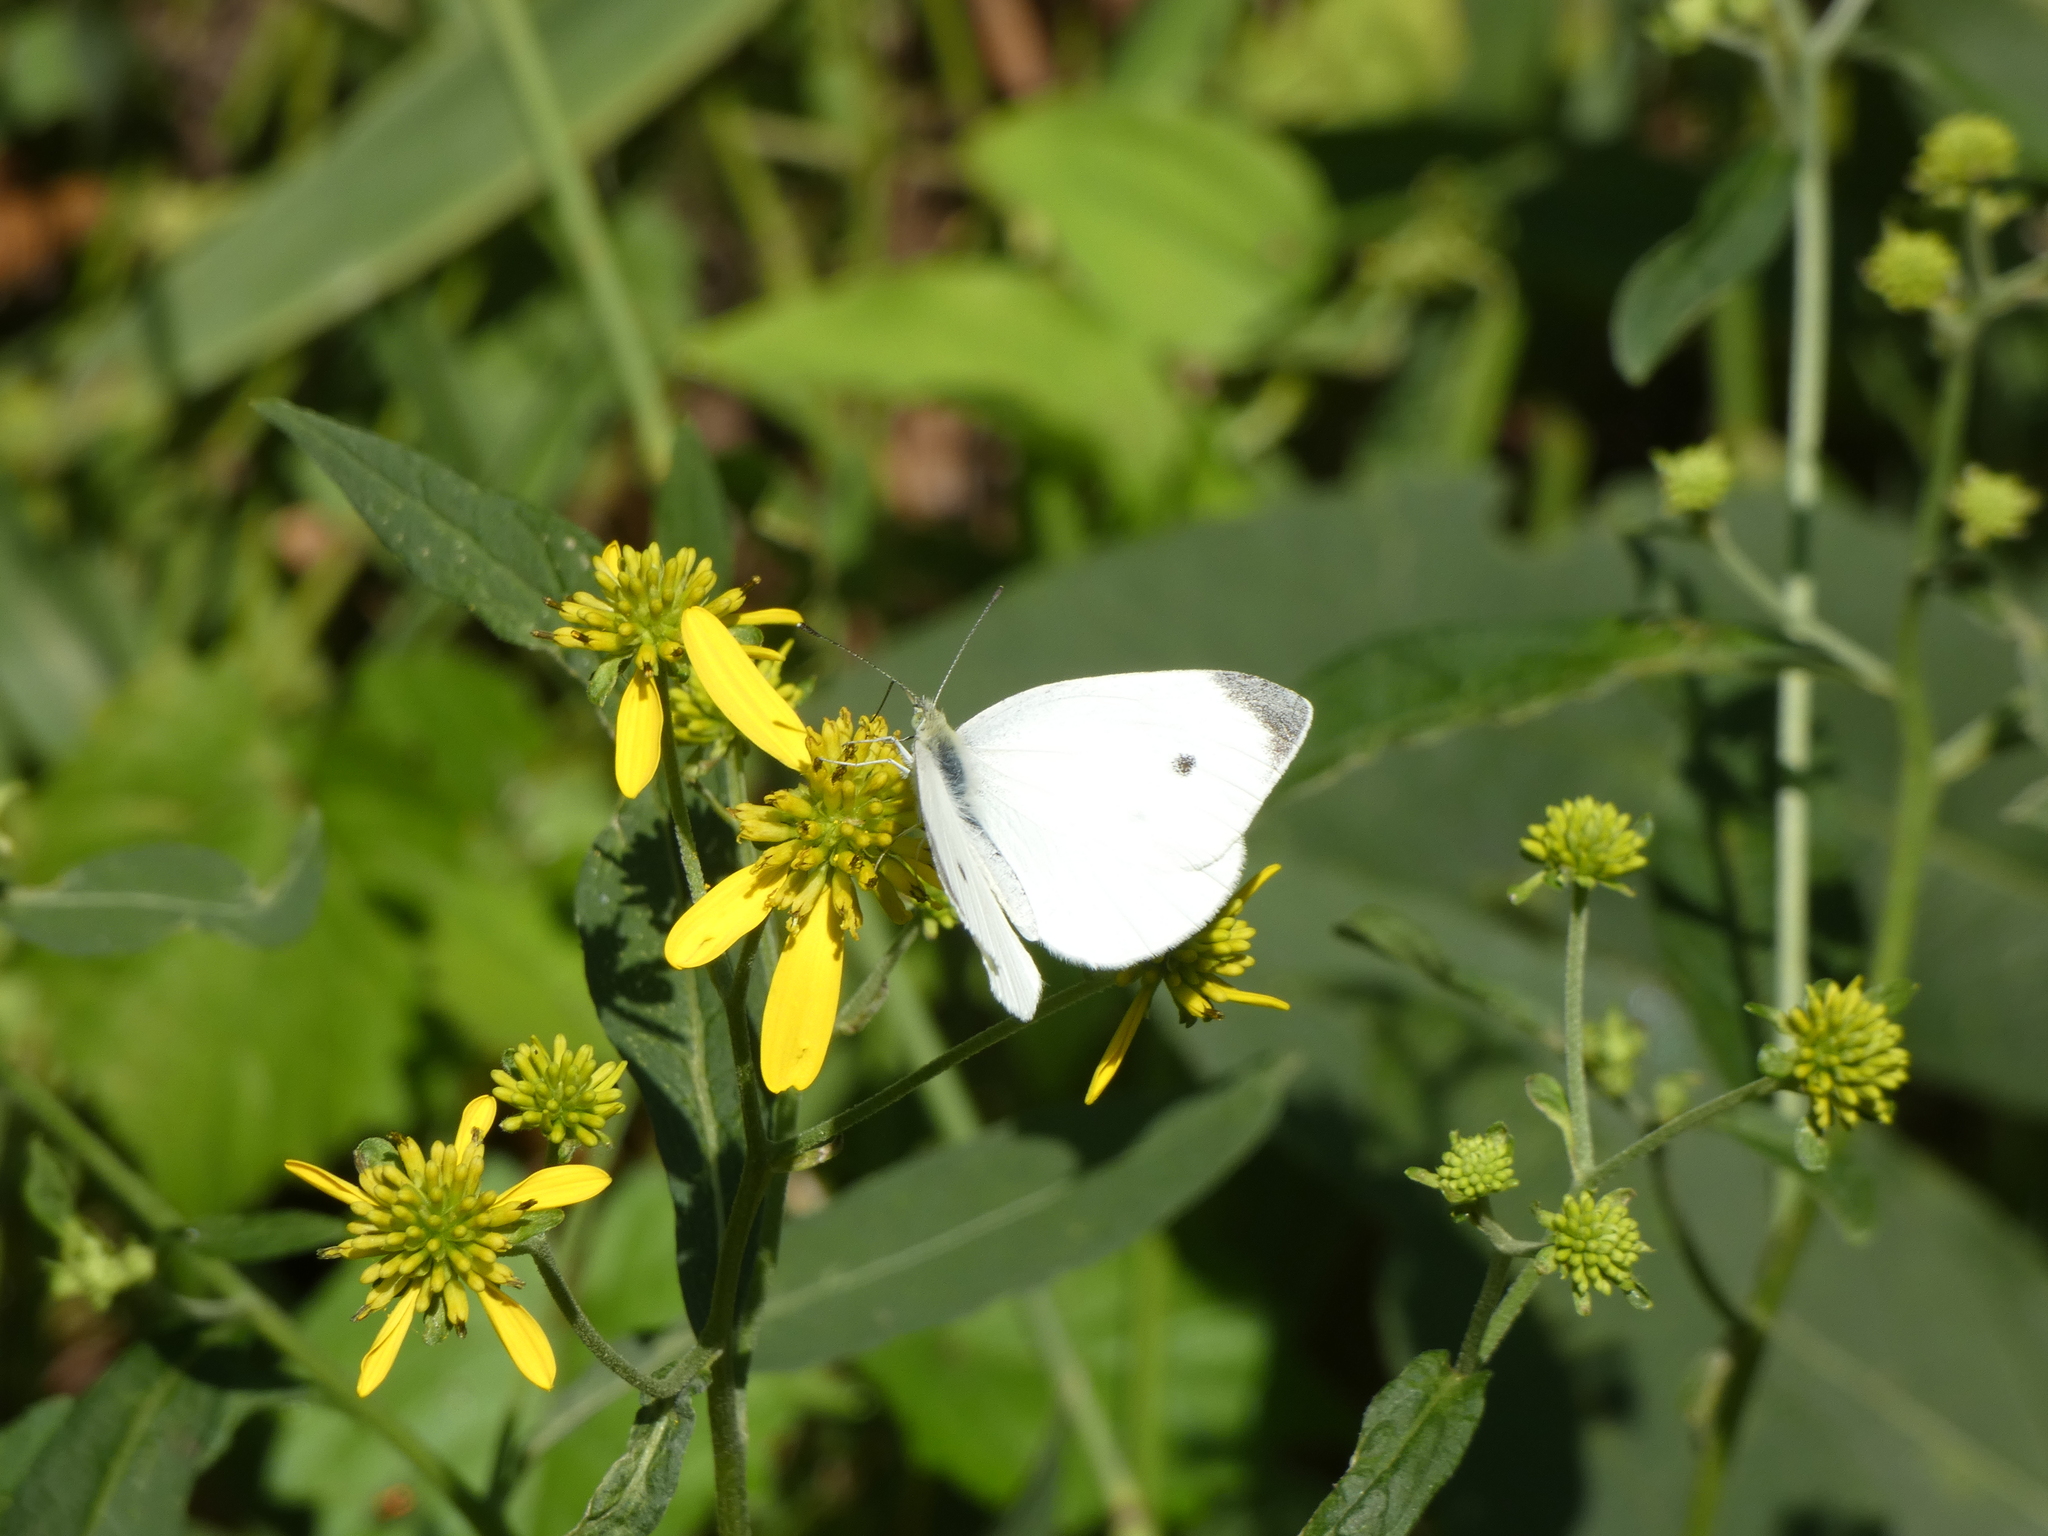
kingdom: Animalia
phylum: Arthropoda
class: Insecta
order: Lepidoptera
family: Pieridae
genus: Pieris
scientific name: Pieris rapae
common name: Small white
